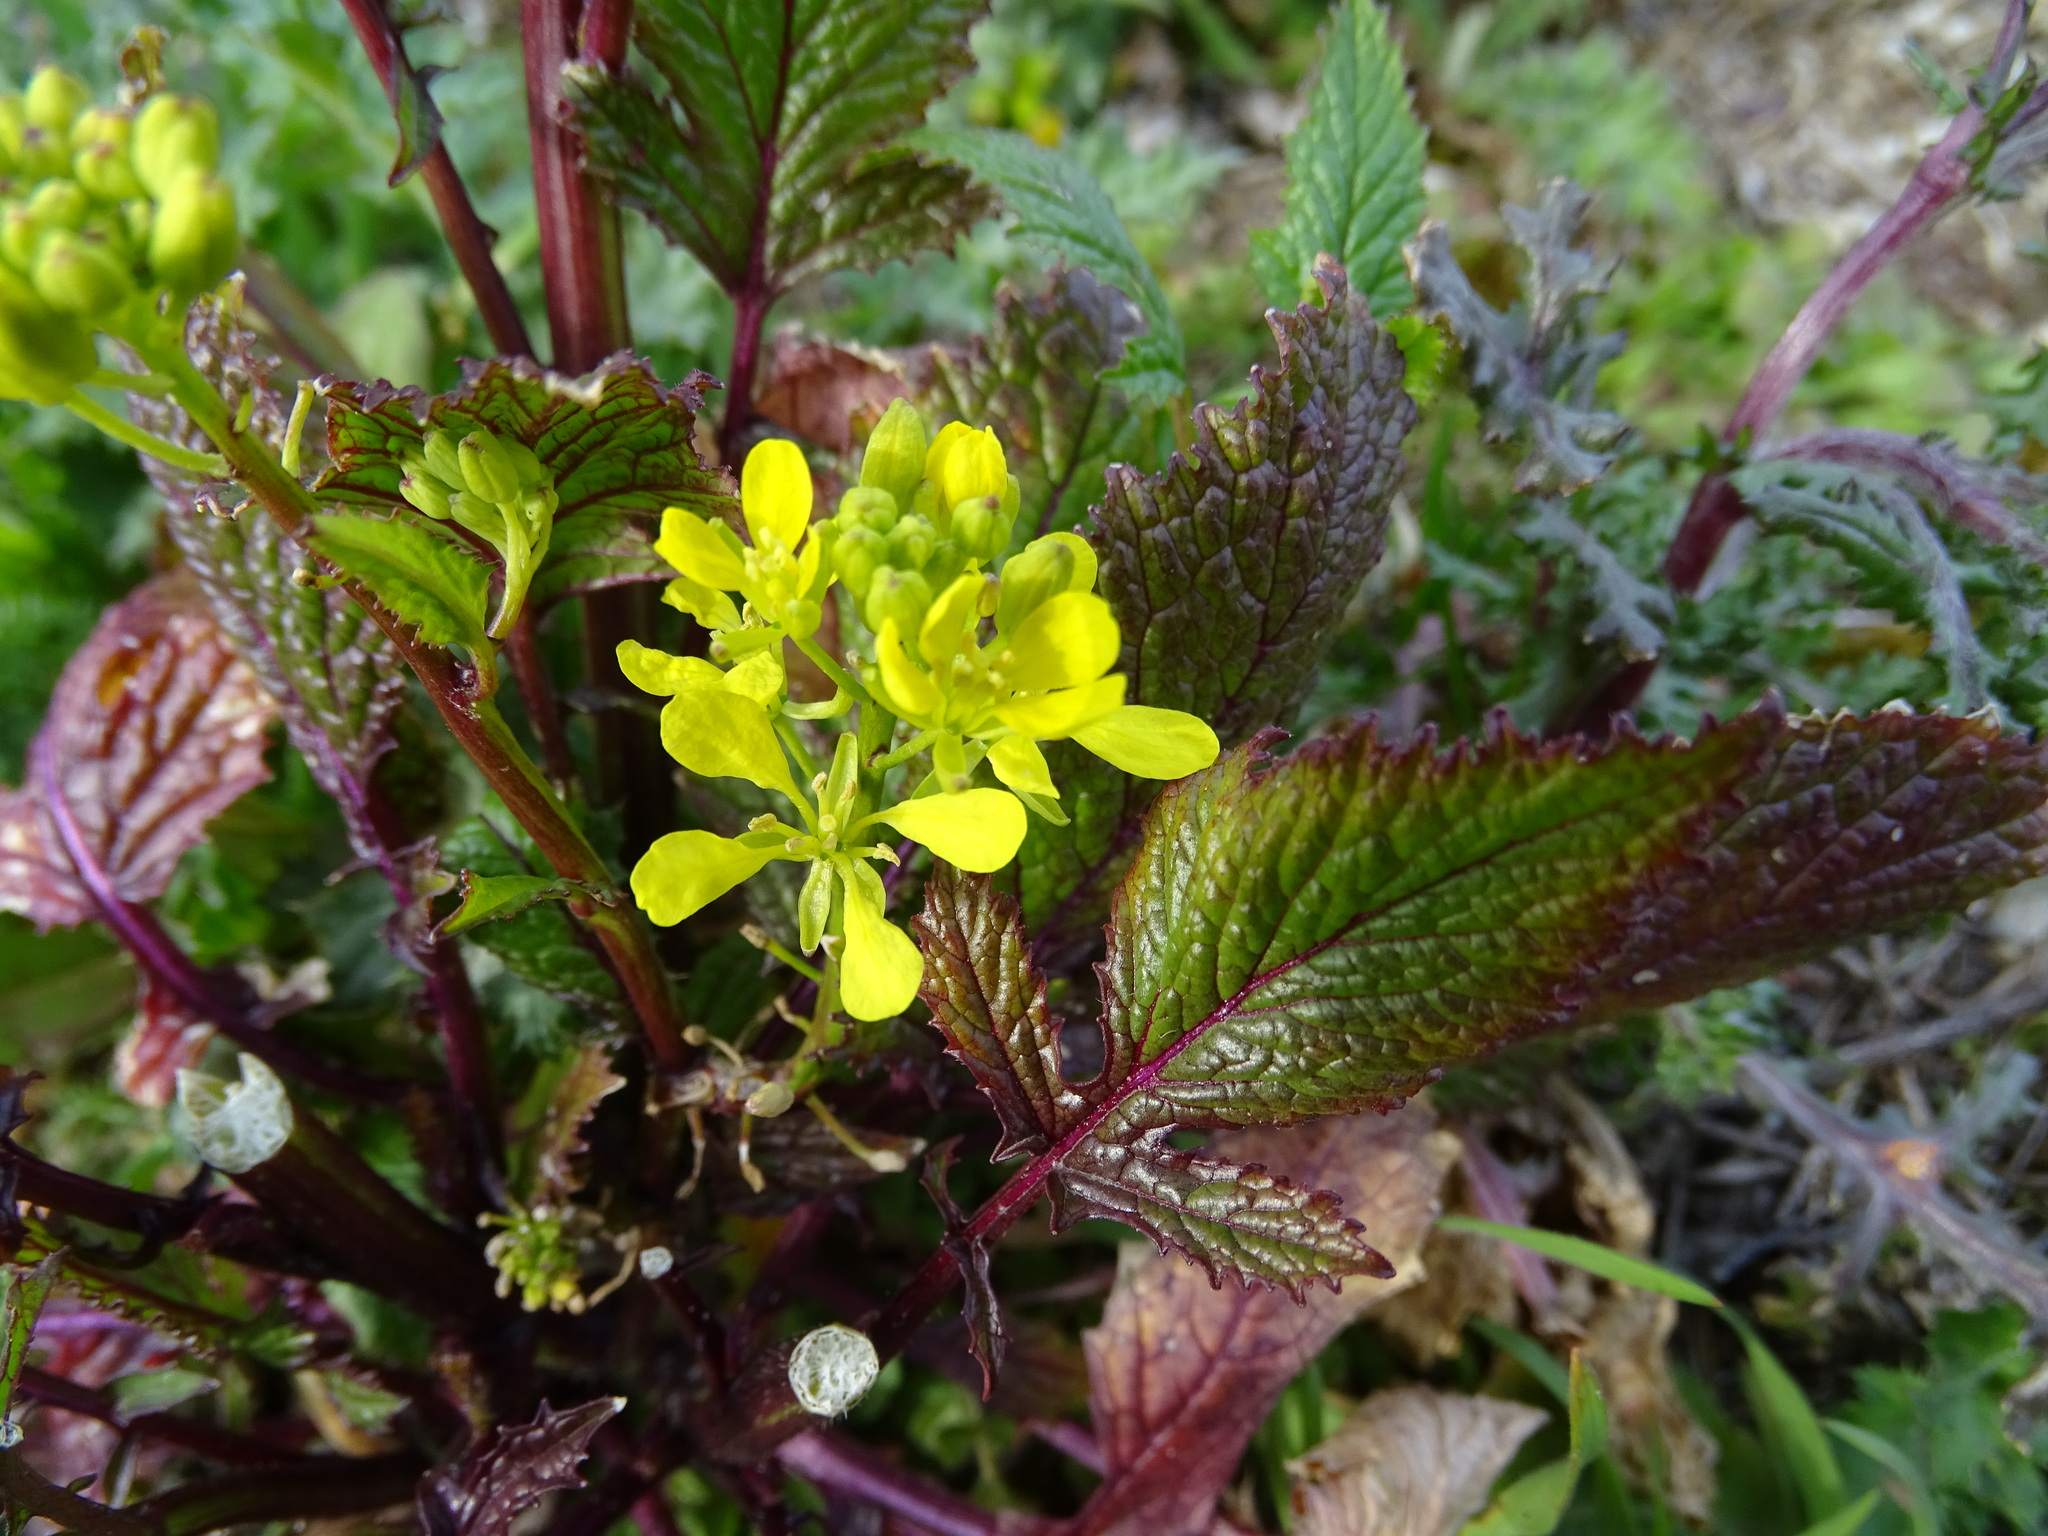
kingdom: Plantae
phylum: Tracheophyta
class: Magnoliopsida
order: Brassicales
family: Brassicaceae
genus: Sinapis
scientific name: Sinapis arvensis
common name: Charlock
